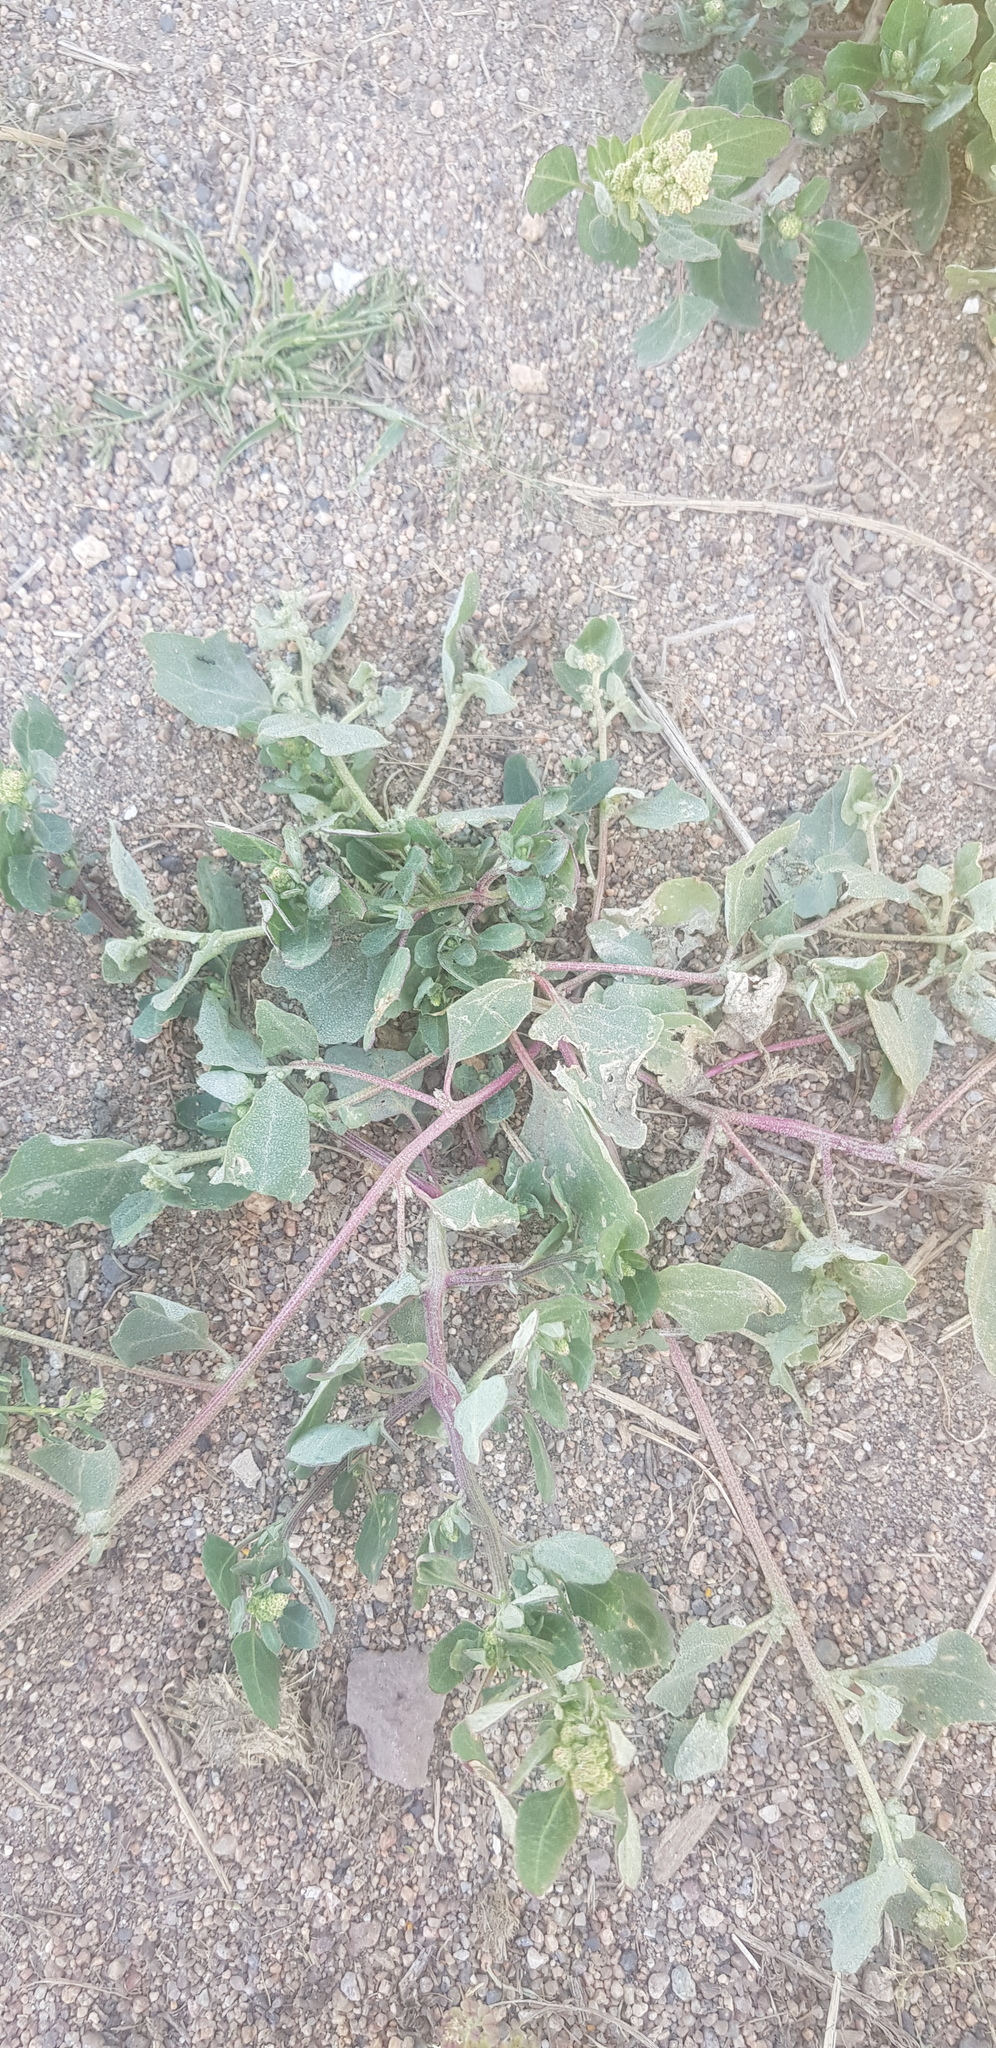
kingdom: Plantae
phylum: Tracheophyta
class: Magnoliopsida
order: Caryophyllales
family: Amaranthaceae
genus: Atriplex
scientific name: Atriplex sibirica
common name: Siberian saltbush
